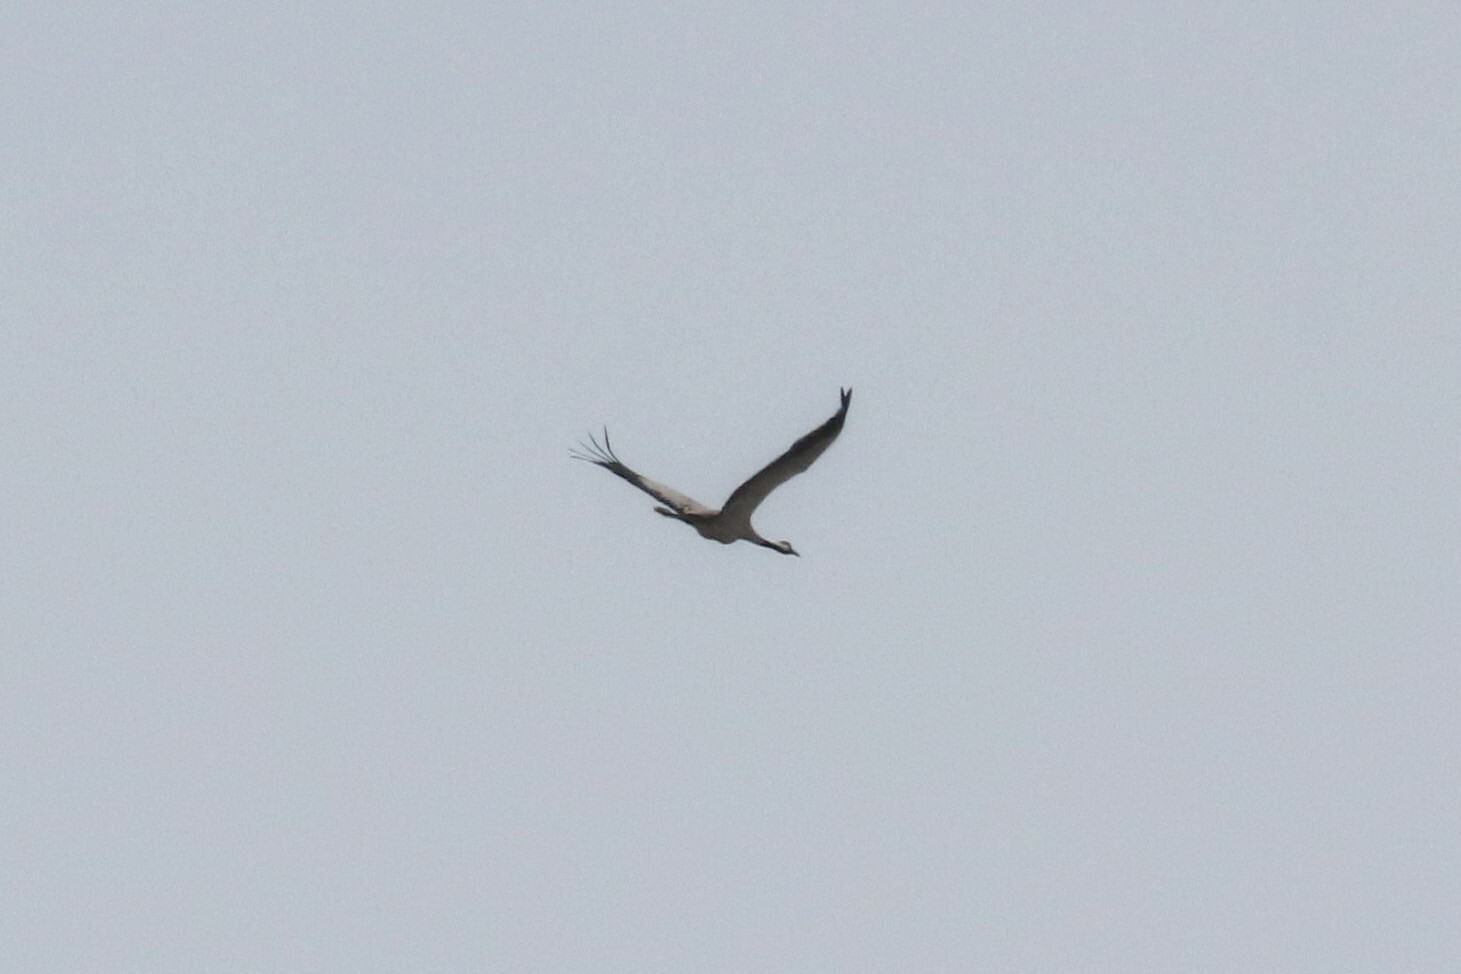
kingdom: Animalia
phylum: Chordata
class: Aves
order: Gruiformes
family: Gruidae
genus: Grus
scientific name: Grus grus
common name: Common crane
